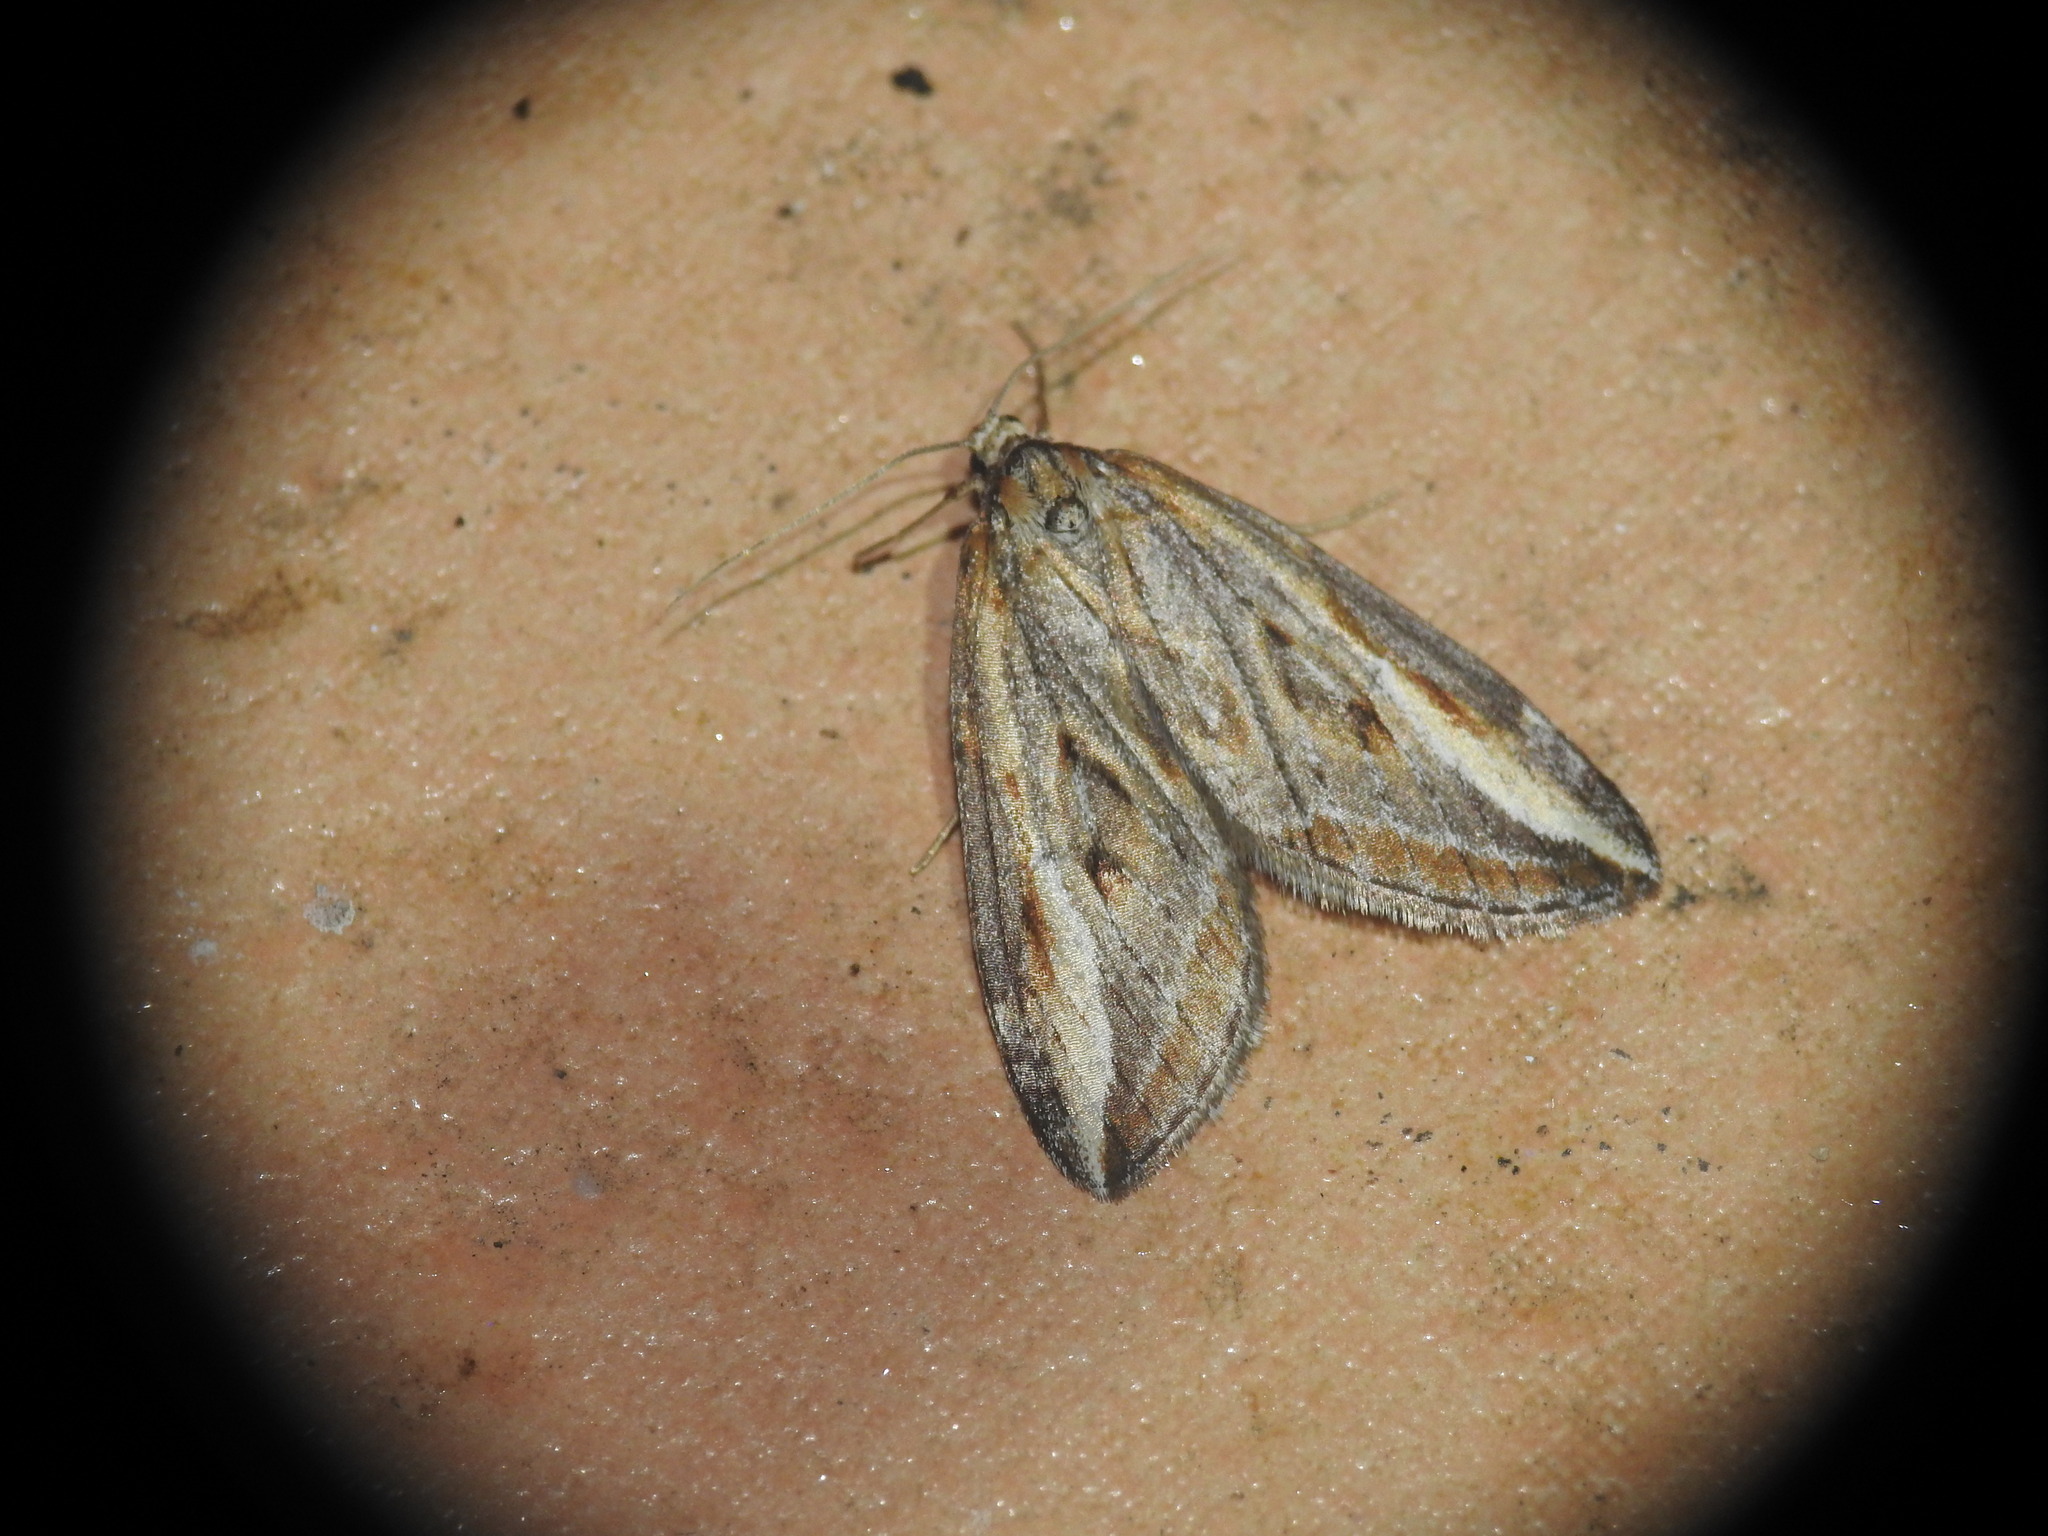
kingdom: Animalia
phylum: Arthropoda
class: Insecta
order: Lepidoptera
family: Geometridae
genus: Chesias
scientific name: Chesias legatella
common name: Streak
